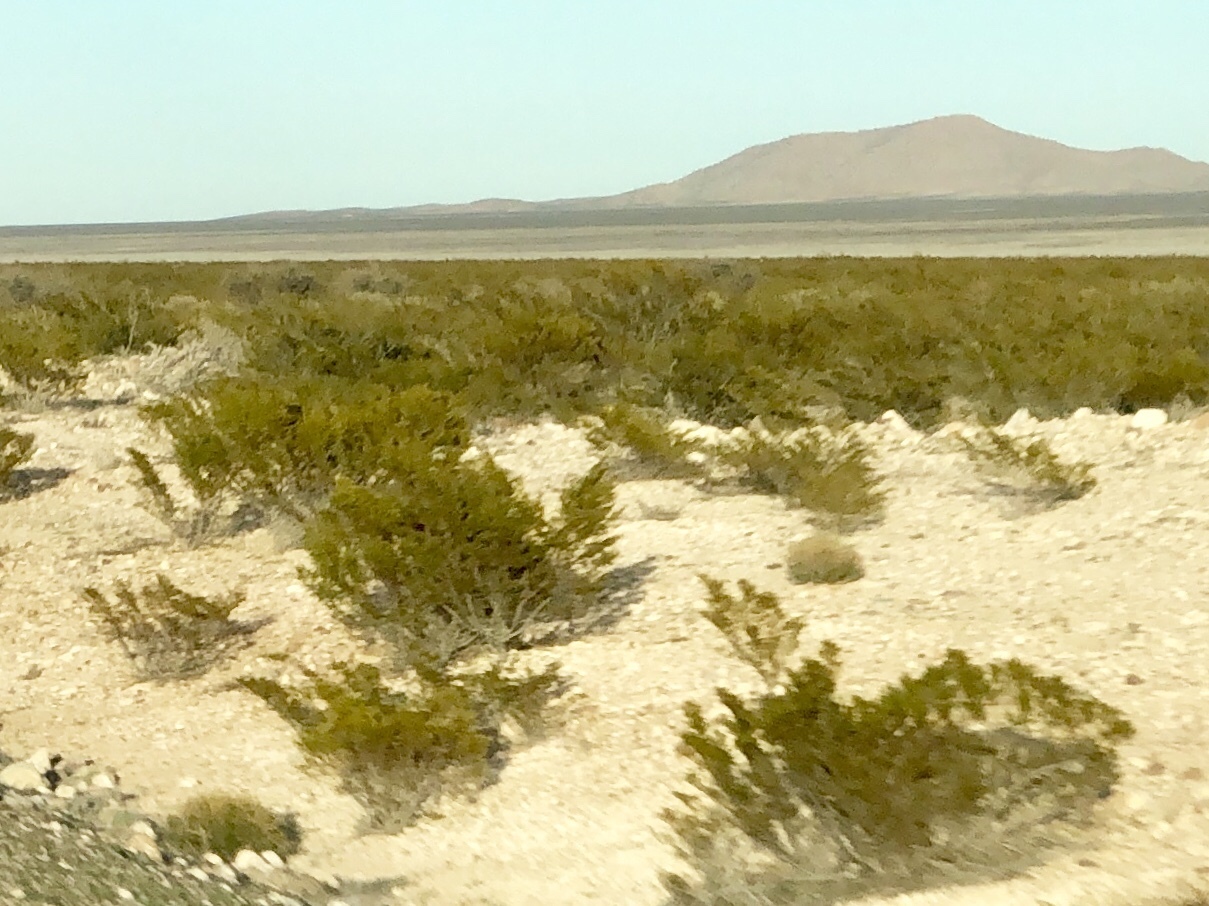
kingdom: Plantae
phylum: Tracheophyta
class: Magnoliopsida
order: Zygophyllales
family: Zygophyllaceae
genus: Larrea
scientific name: Larrea tridentata
